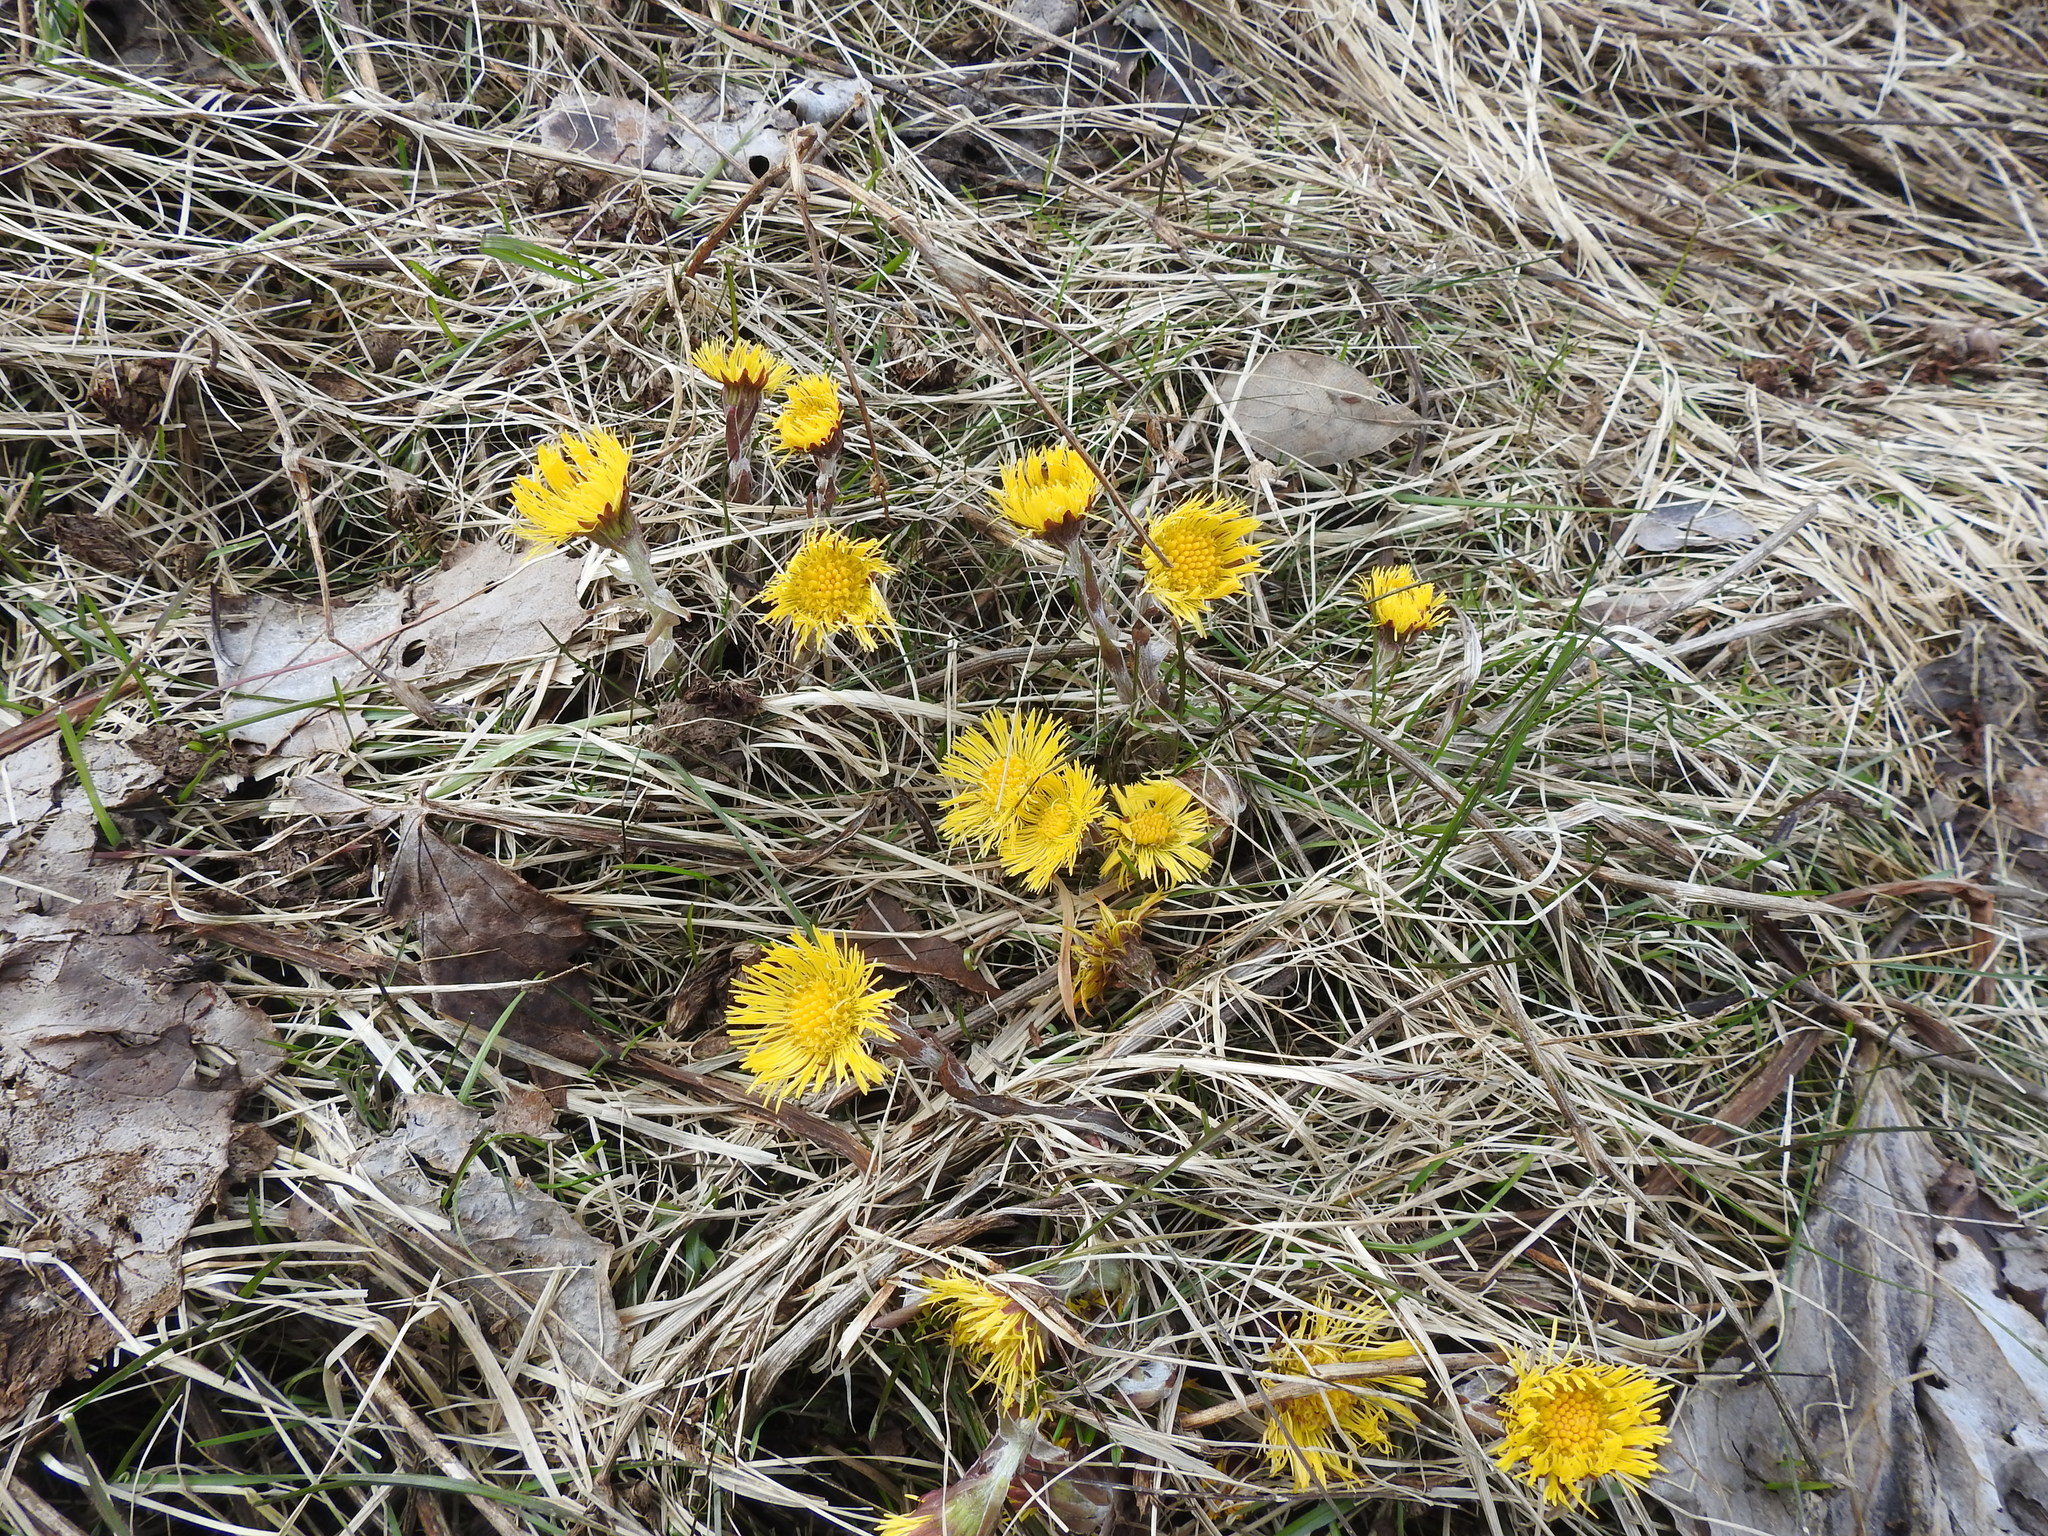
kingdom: Plantae
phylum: Tracheophyta
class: Magnoliopsida
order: Asterales
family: Asteraceae
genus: Tussilago
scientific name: Tussilago farfara
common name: Coltsfoot
